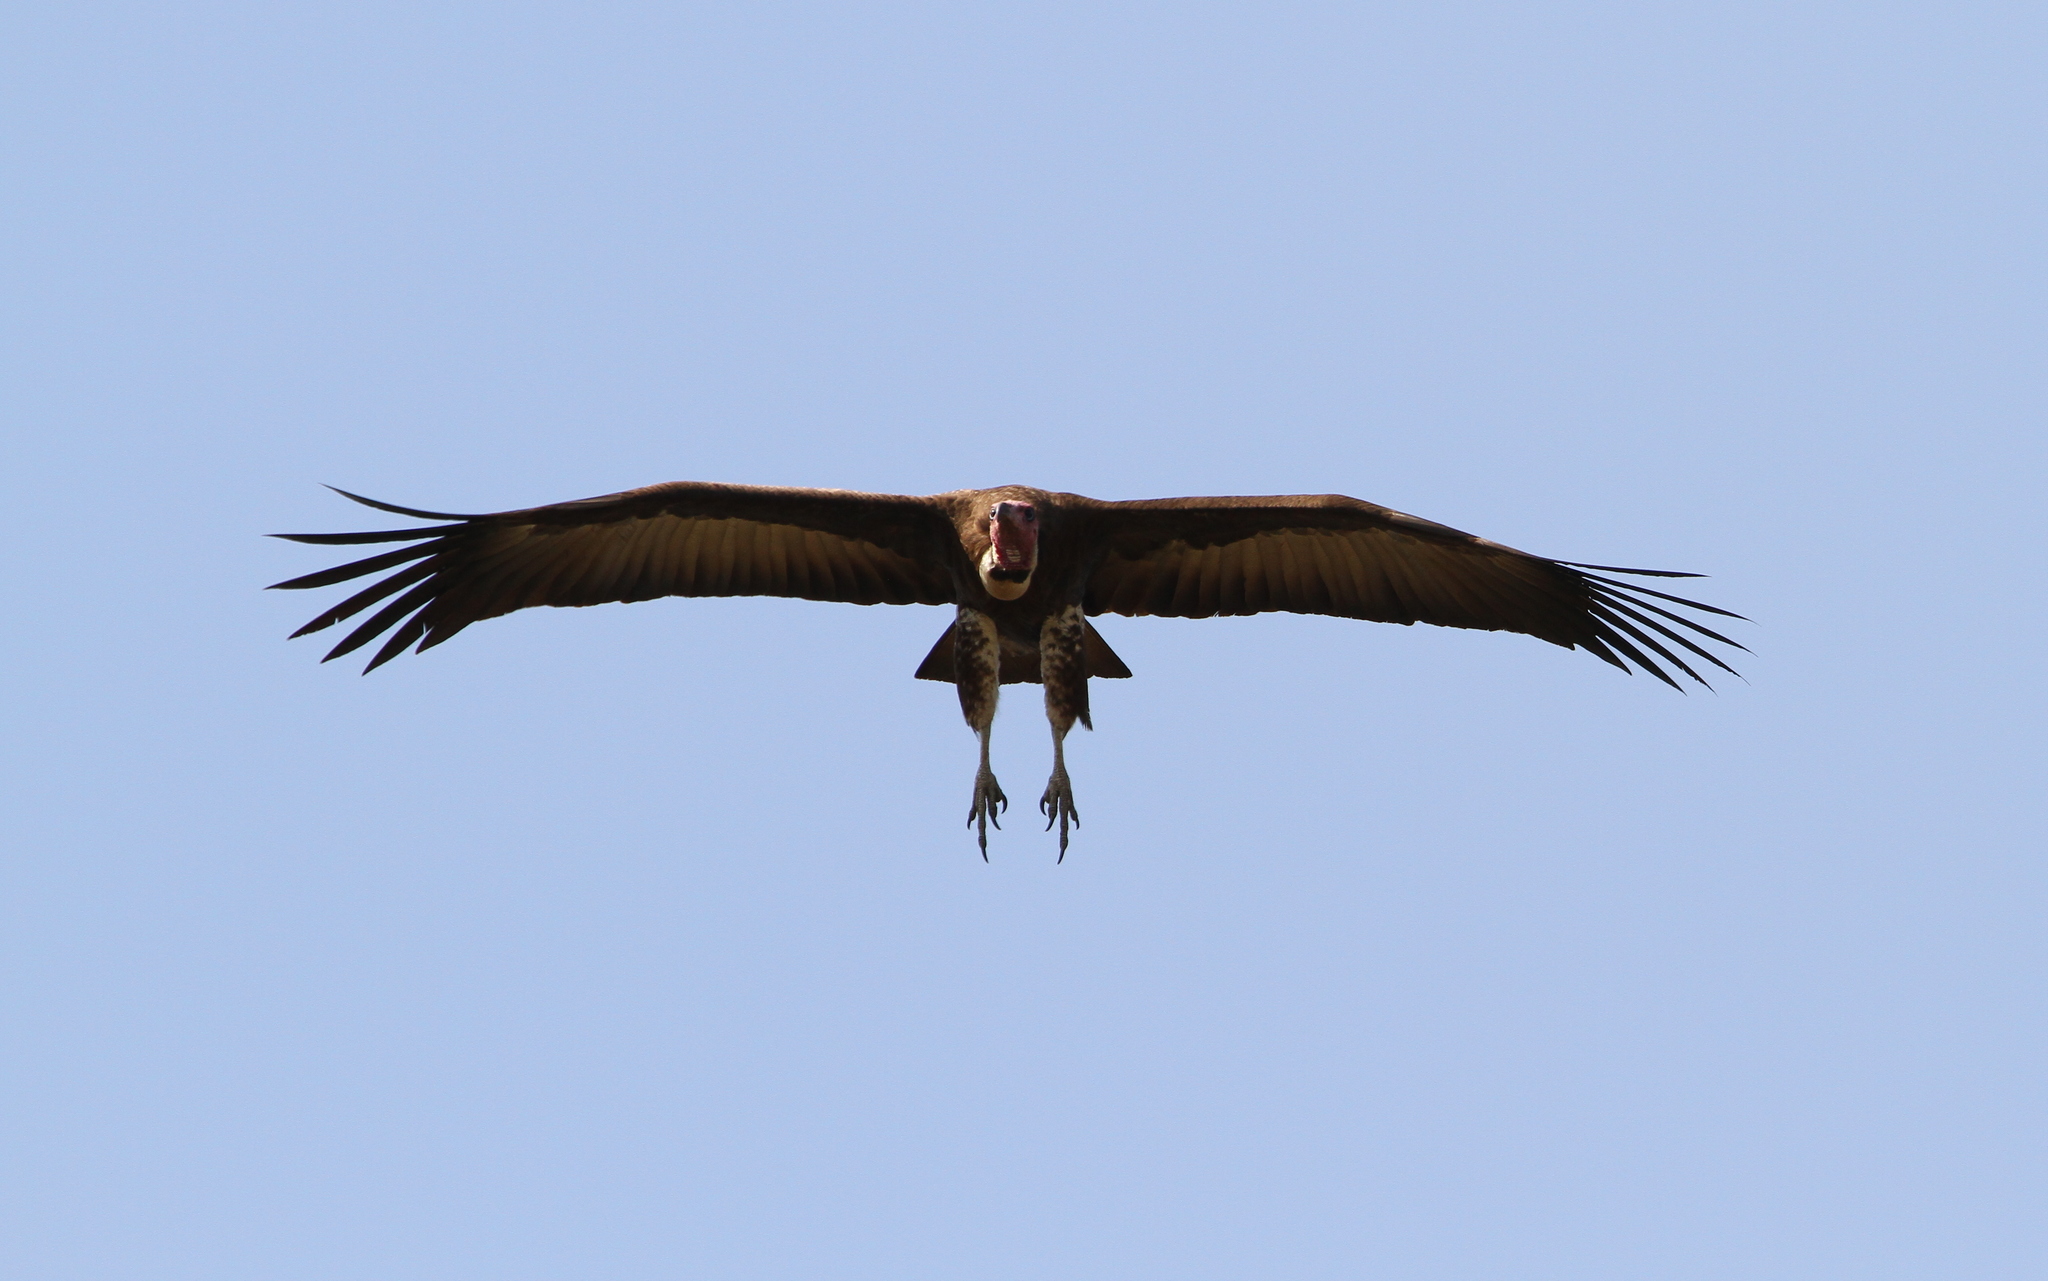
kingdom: Animalia
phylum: Chordata
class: Aves
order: Accipitriformes
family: Accipitridae
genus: Necrosyrtes
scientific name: Necrosyrtes monachus
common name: Hooded vulture
